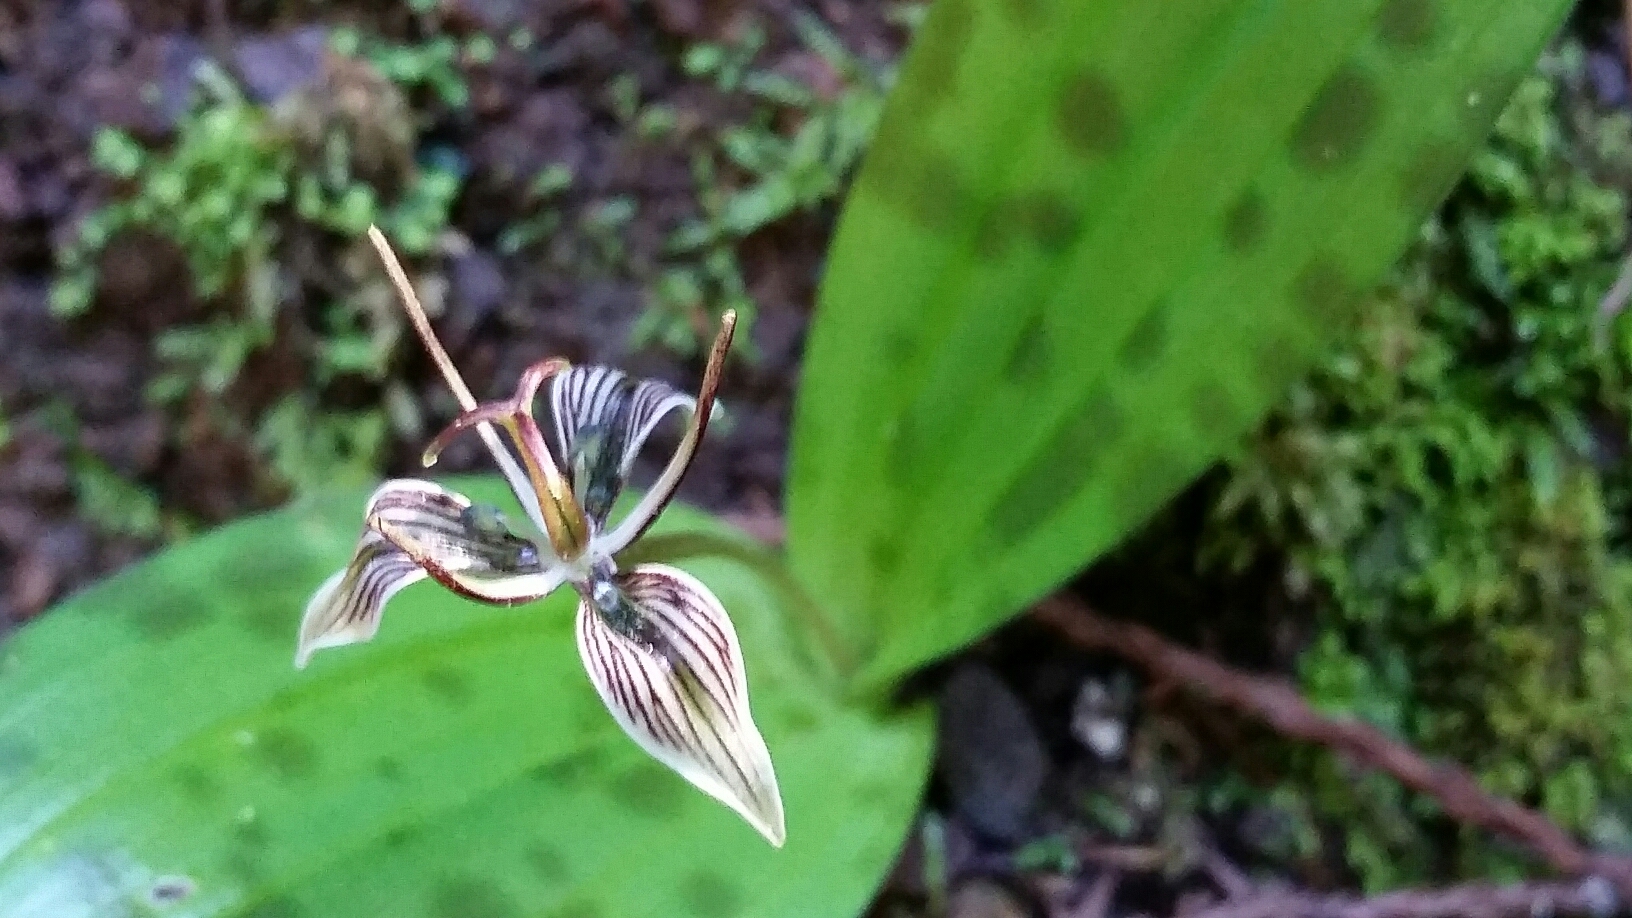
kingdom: Plantae
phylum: Tracheophyta
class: Liliopsida
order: Liliales
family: Liliaceae
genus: Scoliopus
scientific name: Scoliopus bigelovii
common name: Foetid adder's-tongue
